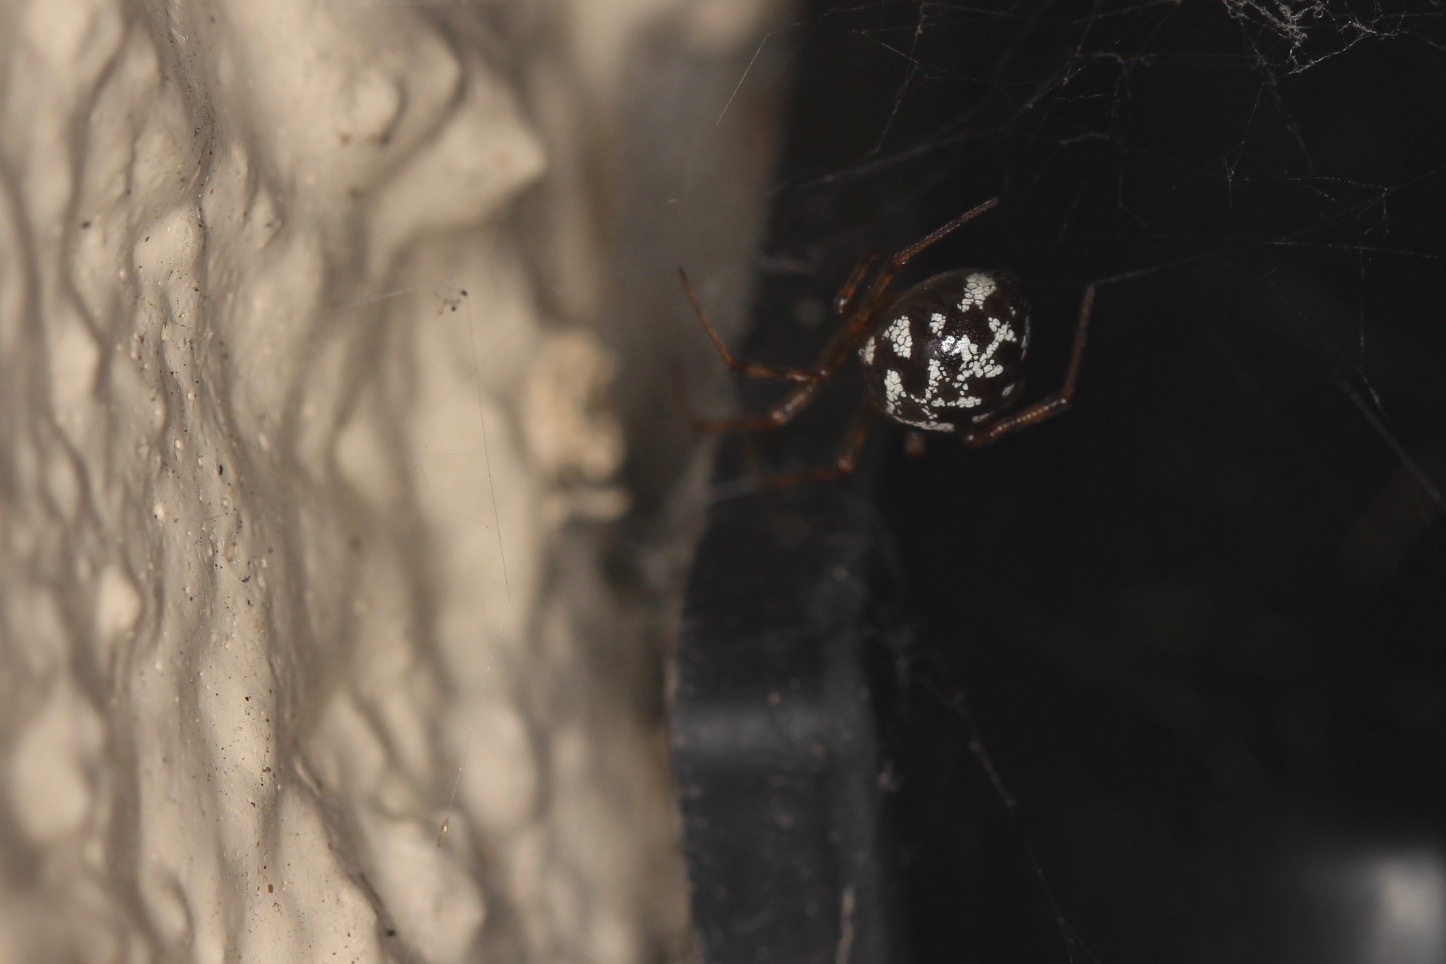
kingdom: Animalia
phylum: Arthropoda
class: Arachnida
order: Araneae
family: Theridiidae
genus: Steatoda
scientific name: Steatoda triangulosa
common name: Triangulate bud spider
